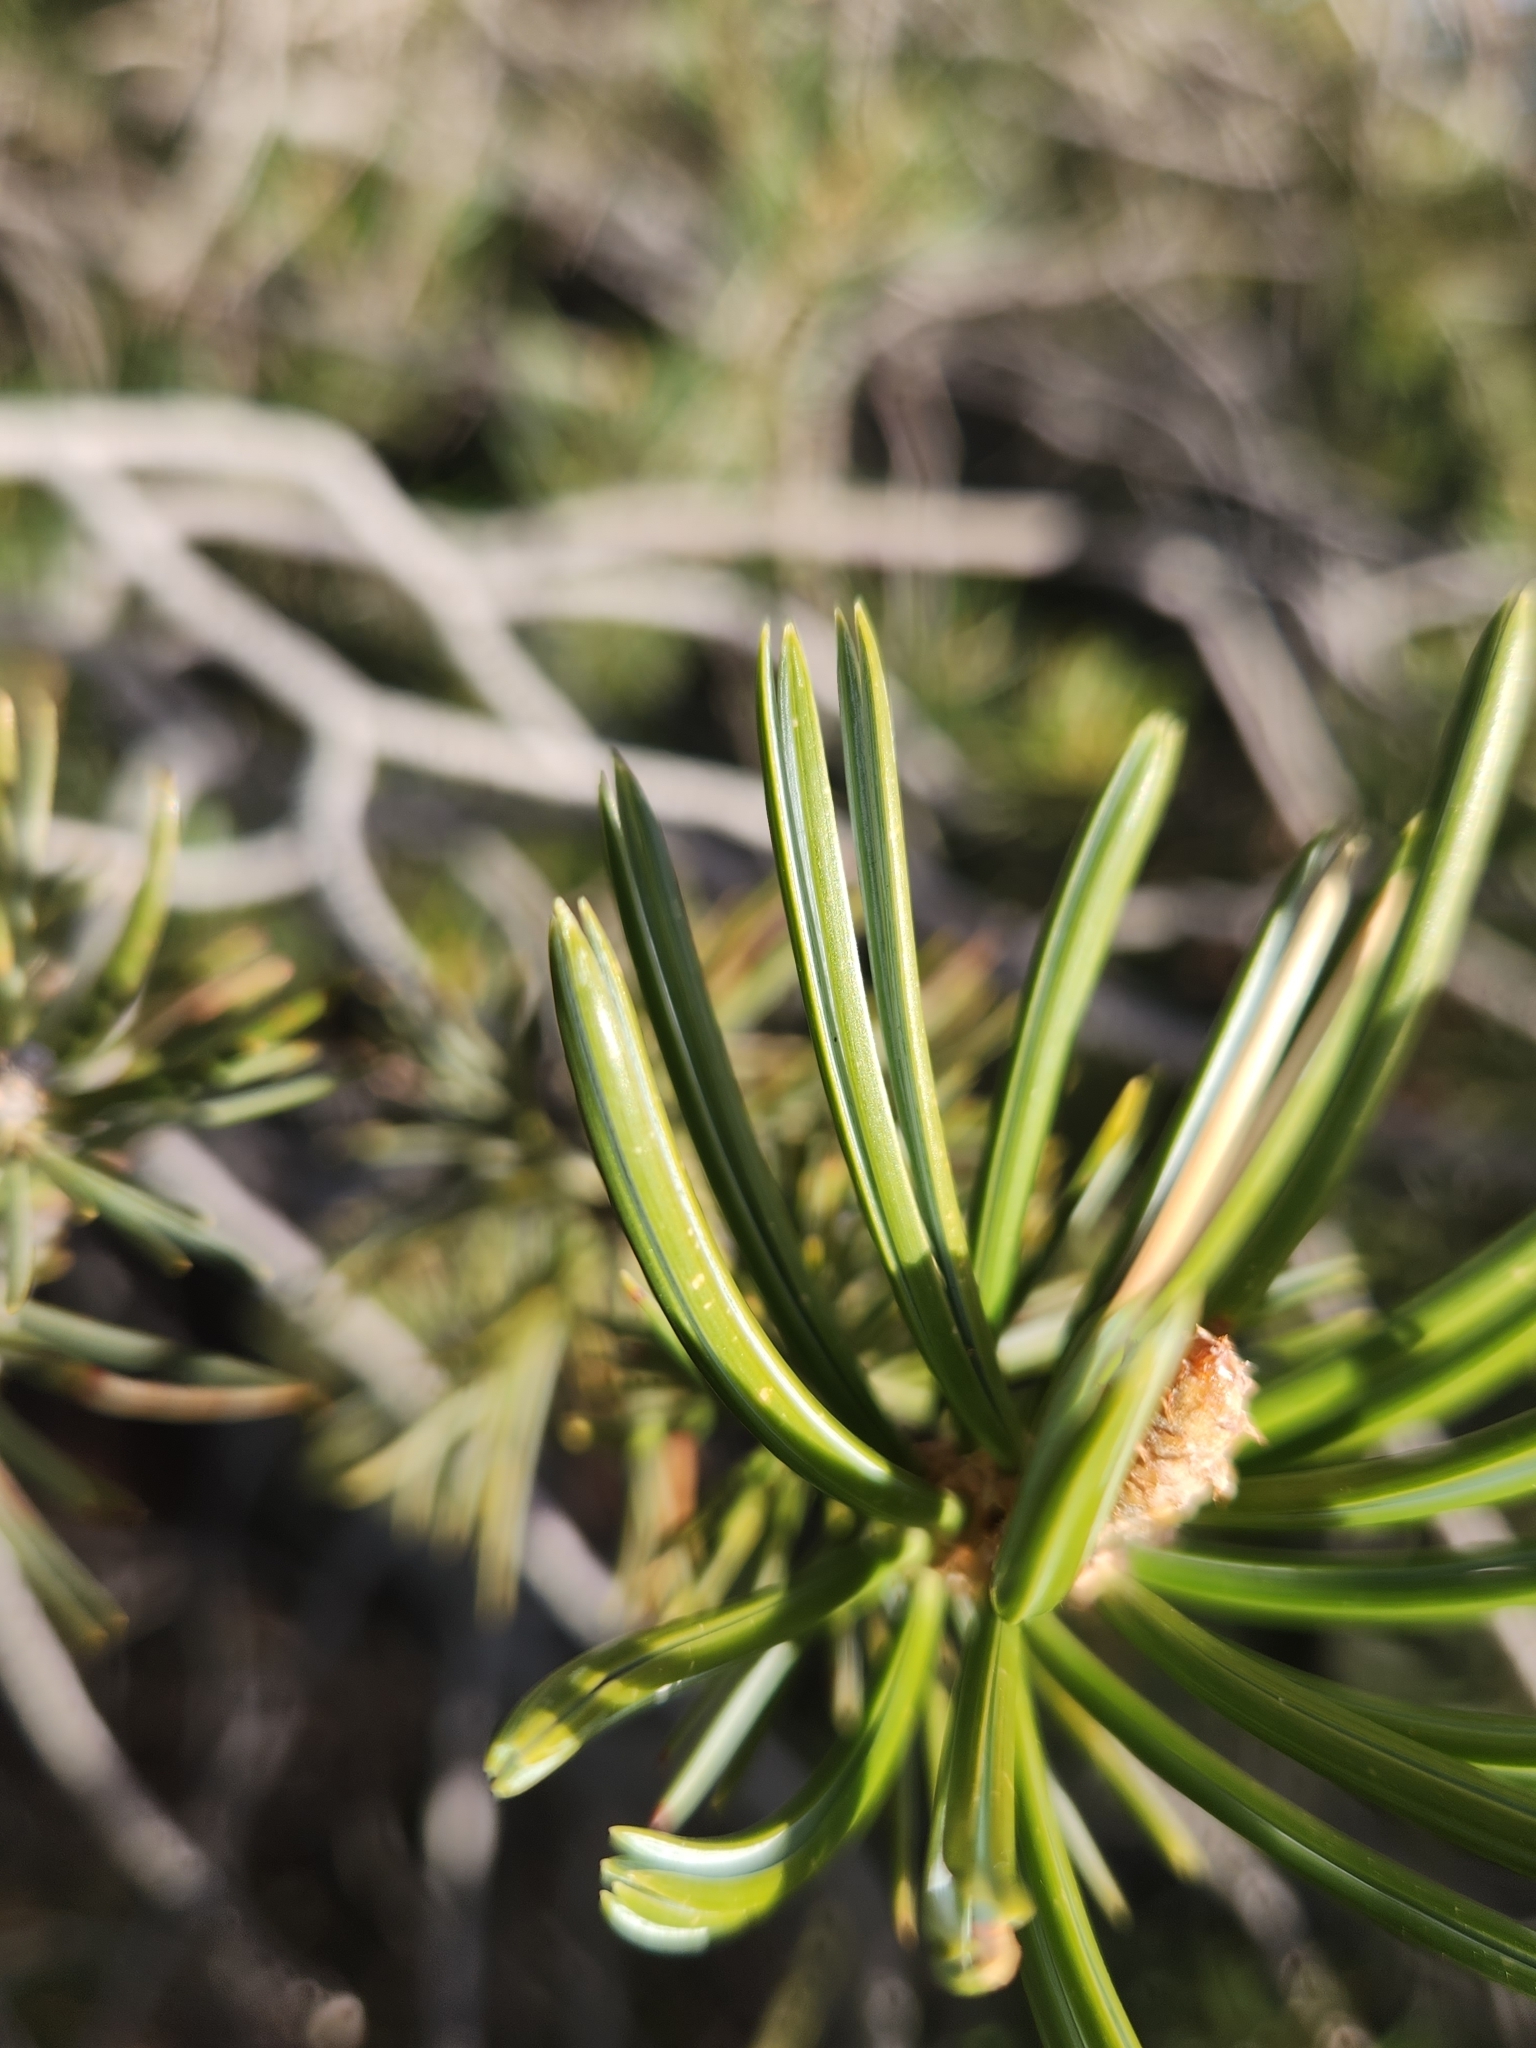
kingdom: Plantae
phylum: Tracheophyta
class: Pinopsida
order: Pinales
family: Pinaceae
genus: Pinus
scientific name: Pinus quadrifolia
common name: Parry pinyon
